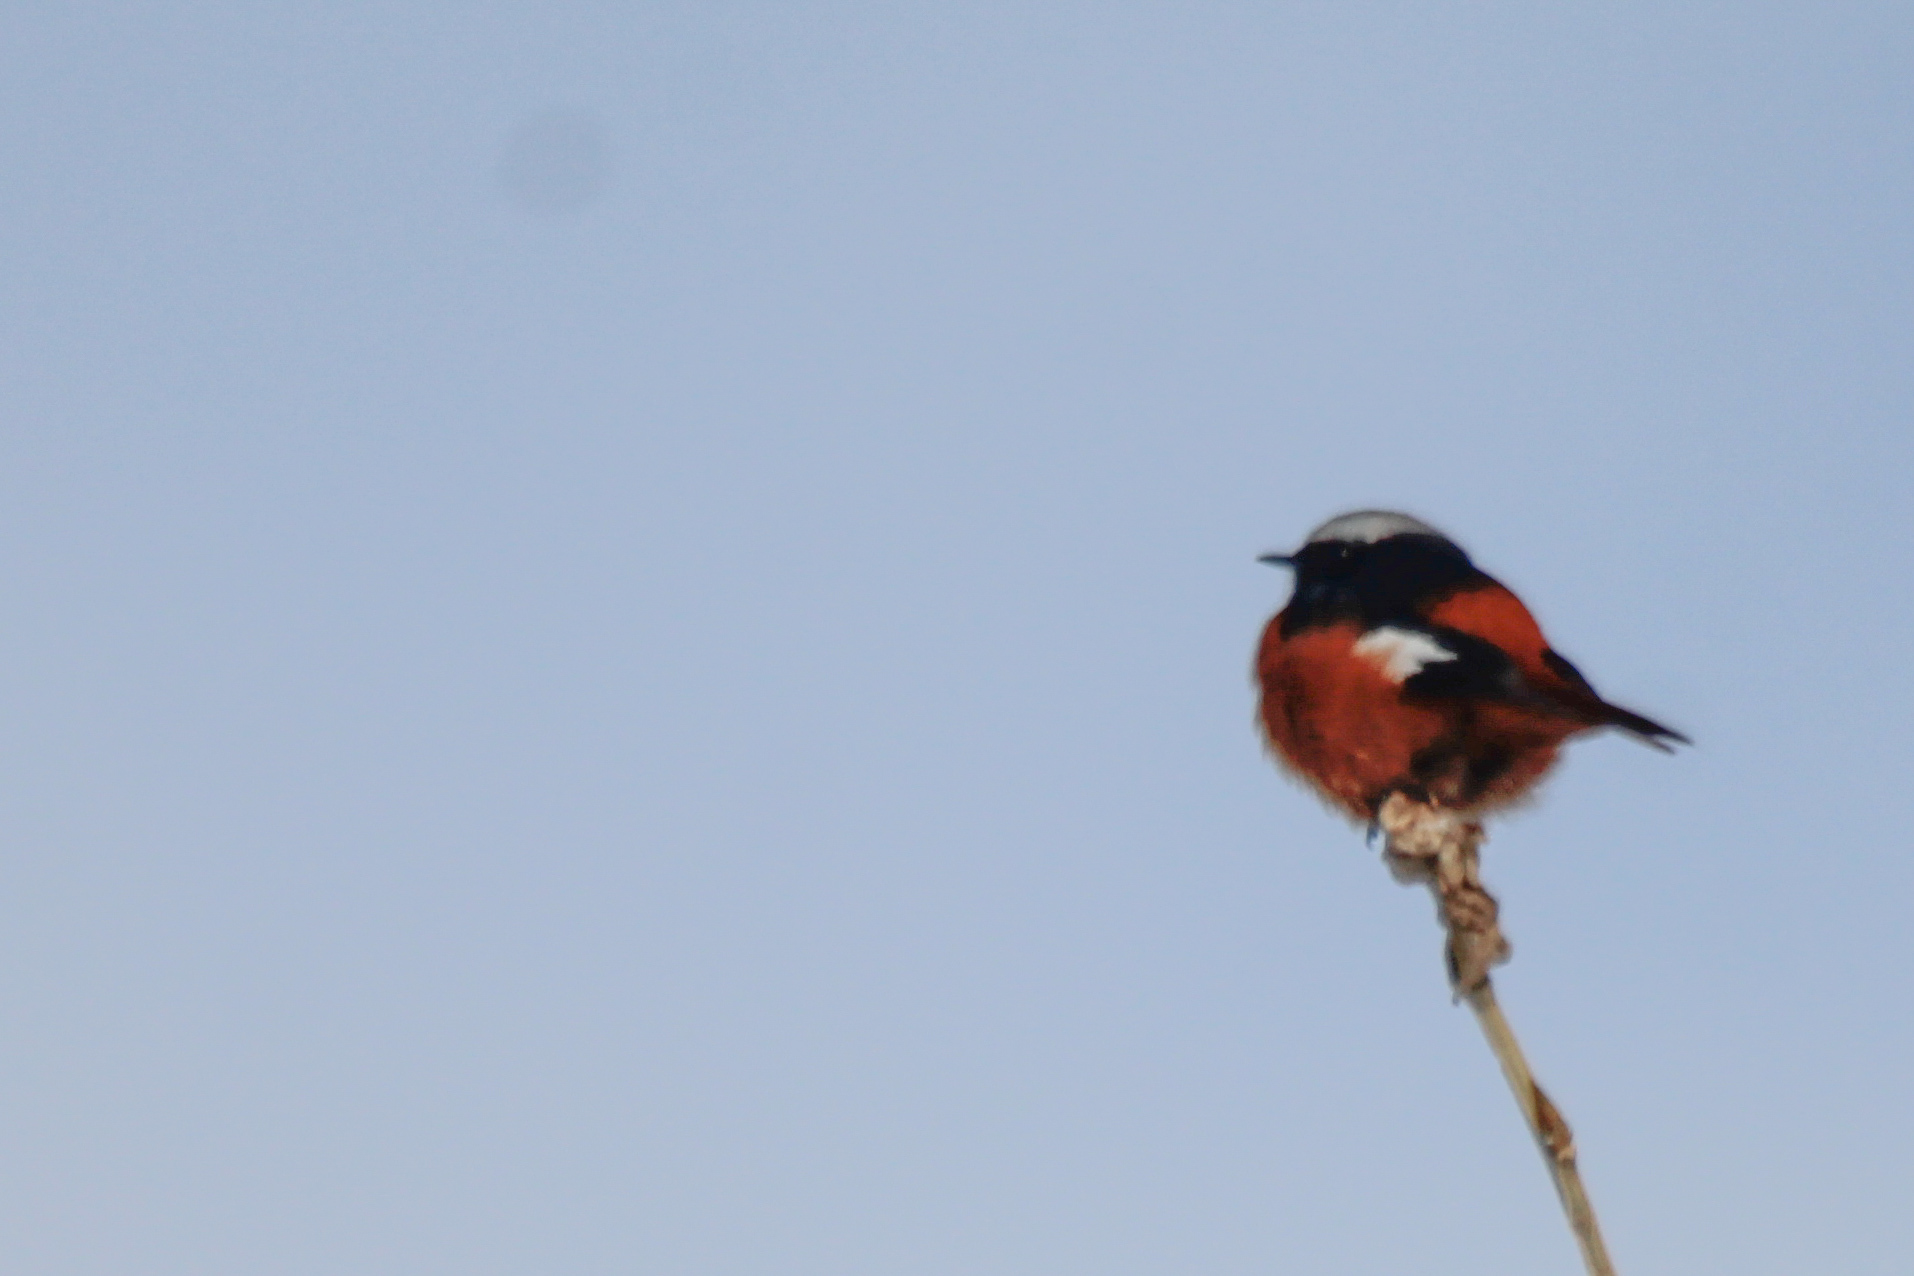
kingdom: Animalia
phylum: Chordata
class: Aves
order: Passeriformes
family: Muscicapidae
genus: Phoenicurus
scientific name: Phoenicurus erythrogastrus
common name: Güldenstädt's redstart
